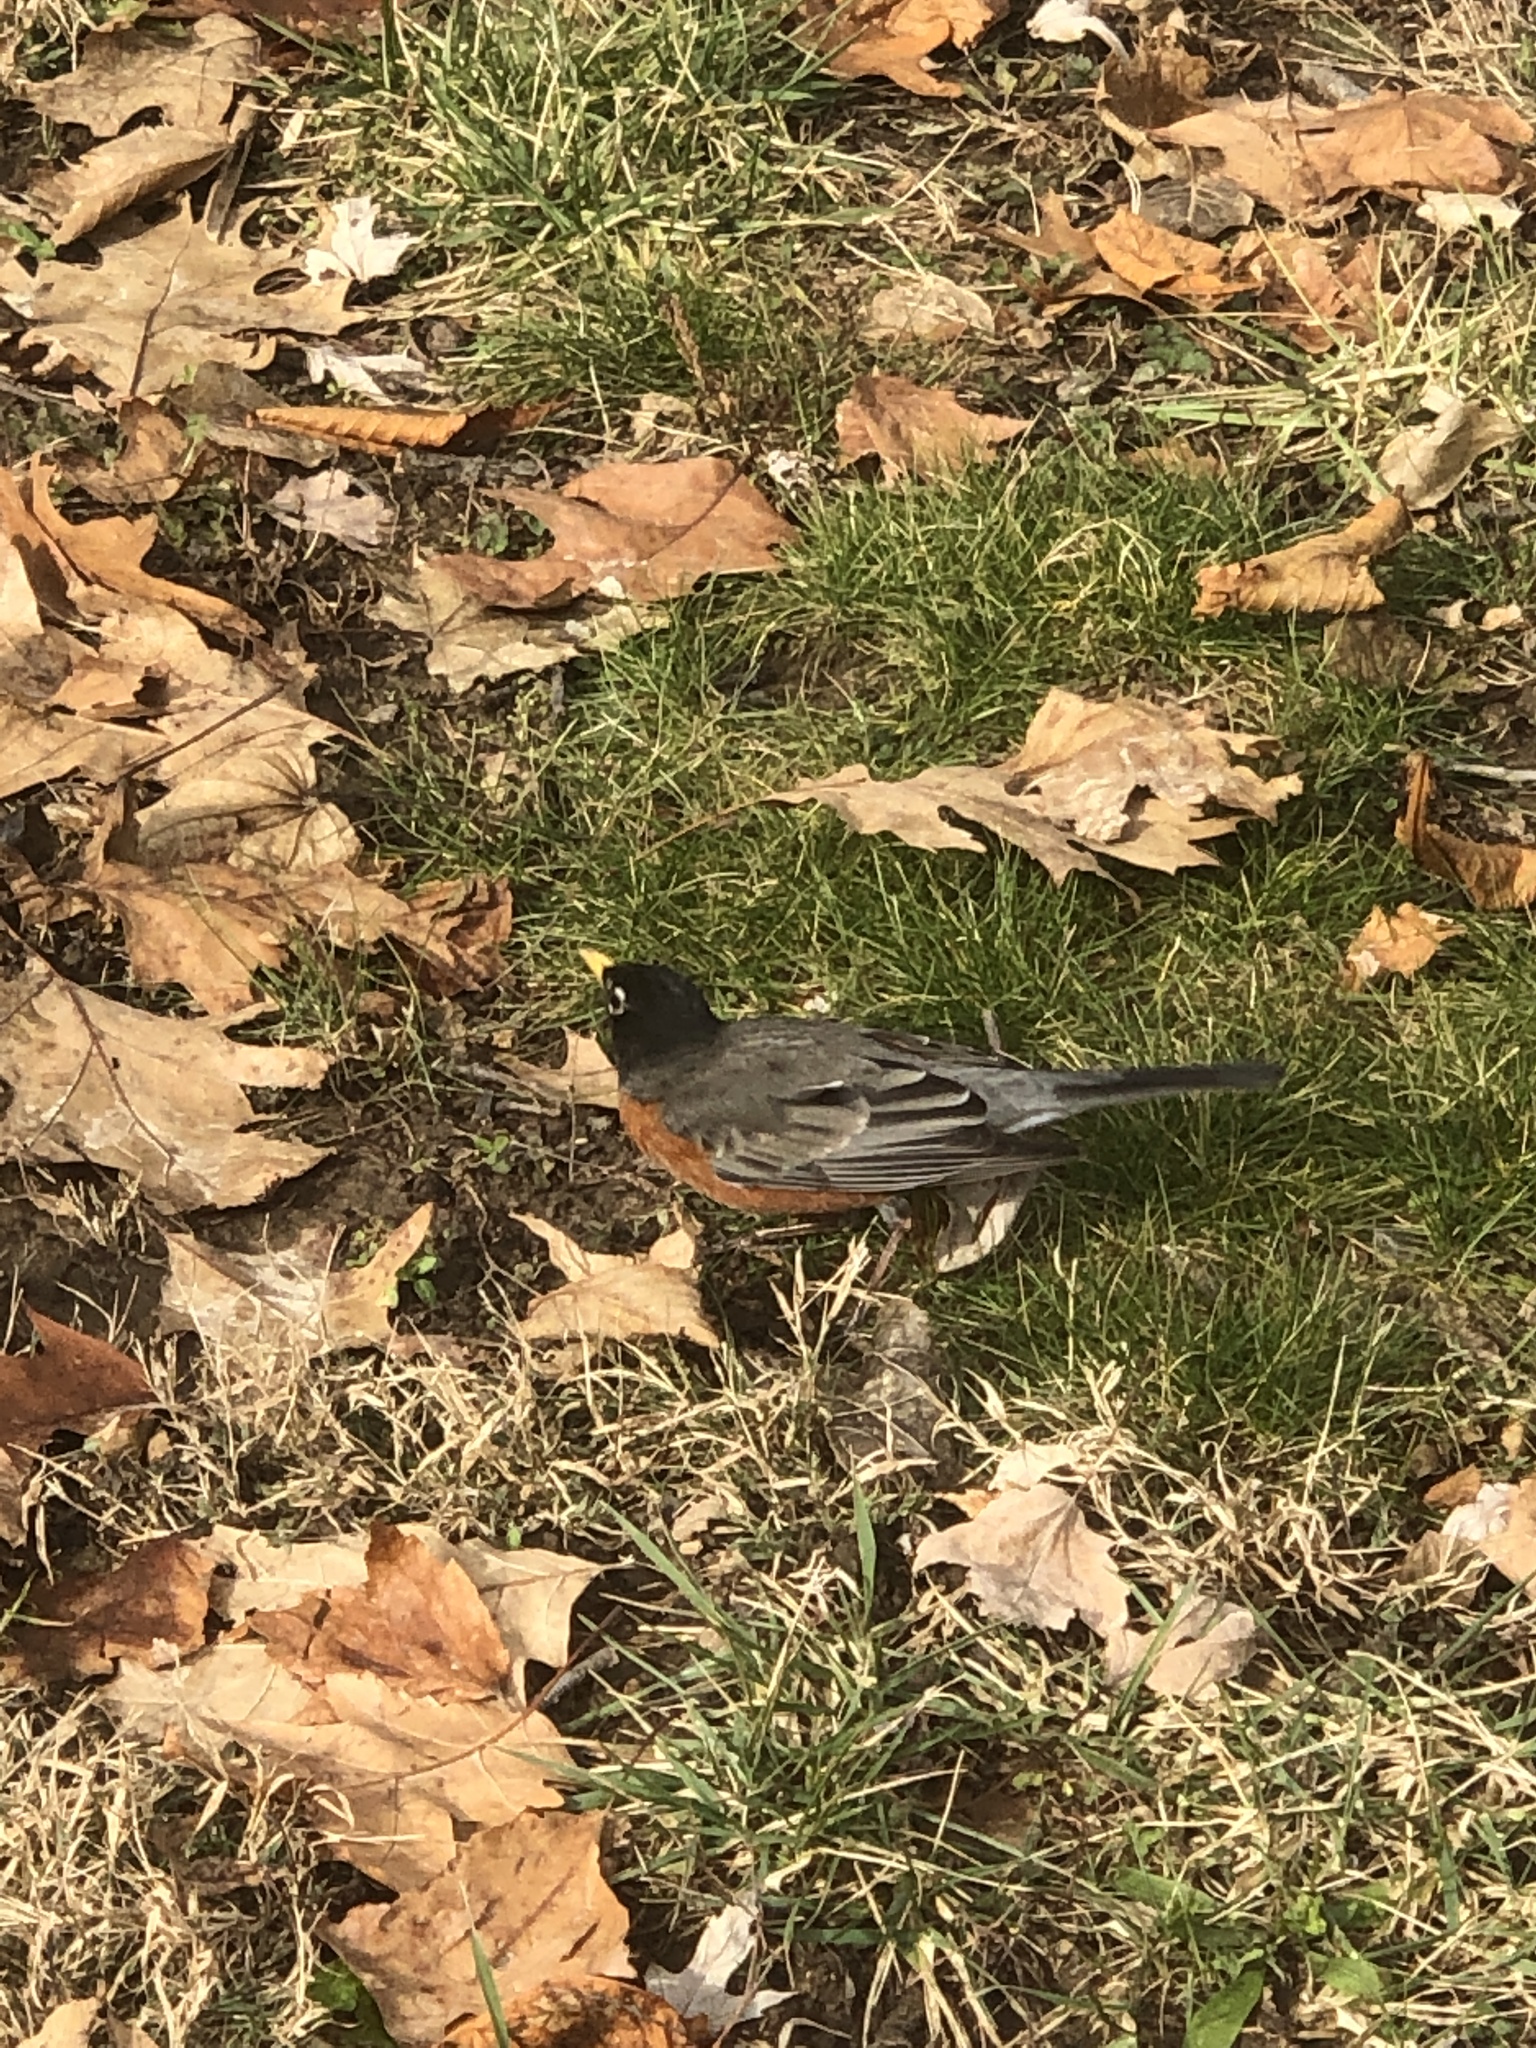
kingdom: Animalia
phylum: Chordata
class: Aves
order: Passeriformes
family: Turdidae
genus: Turdus
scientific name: Turdus migratorius
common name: American robin
